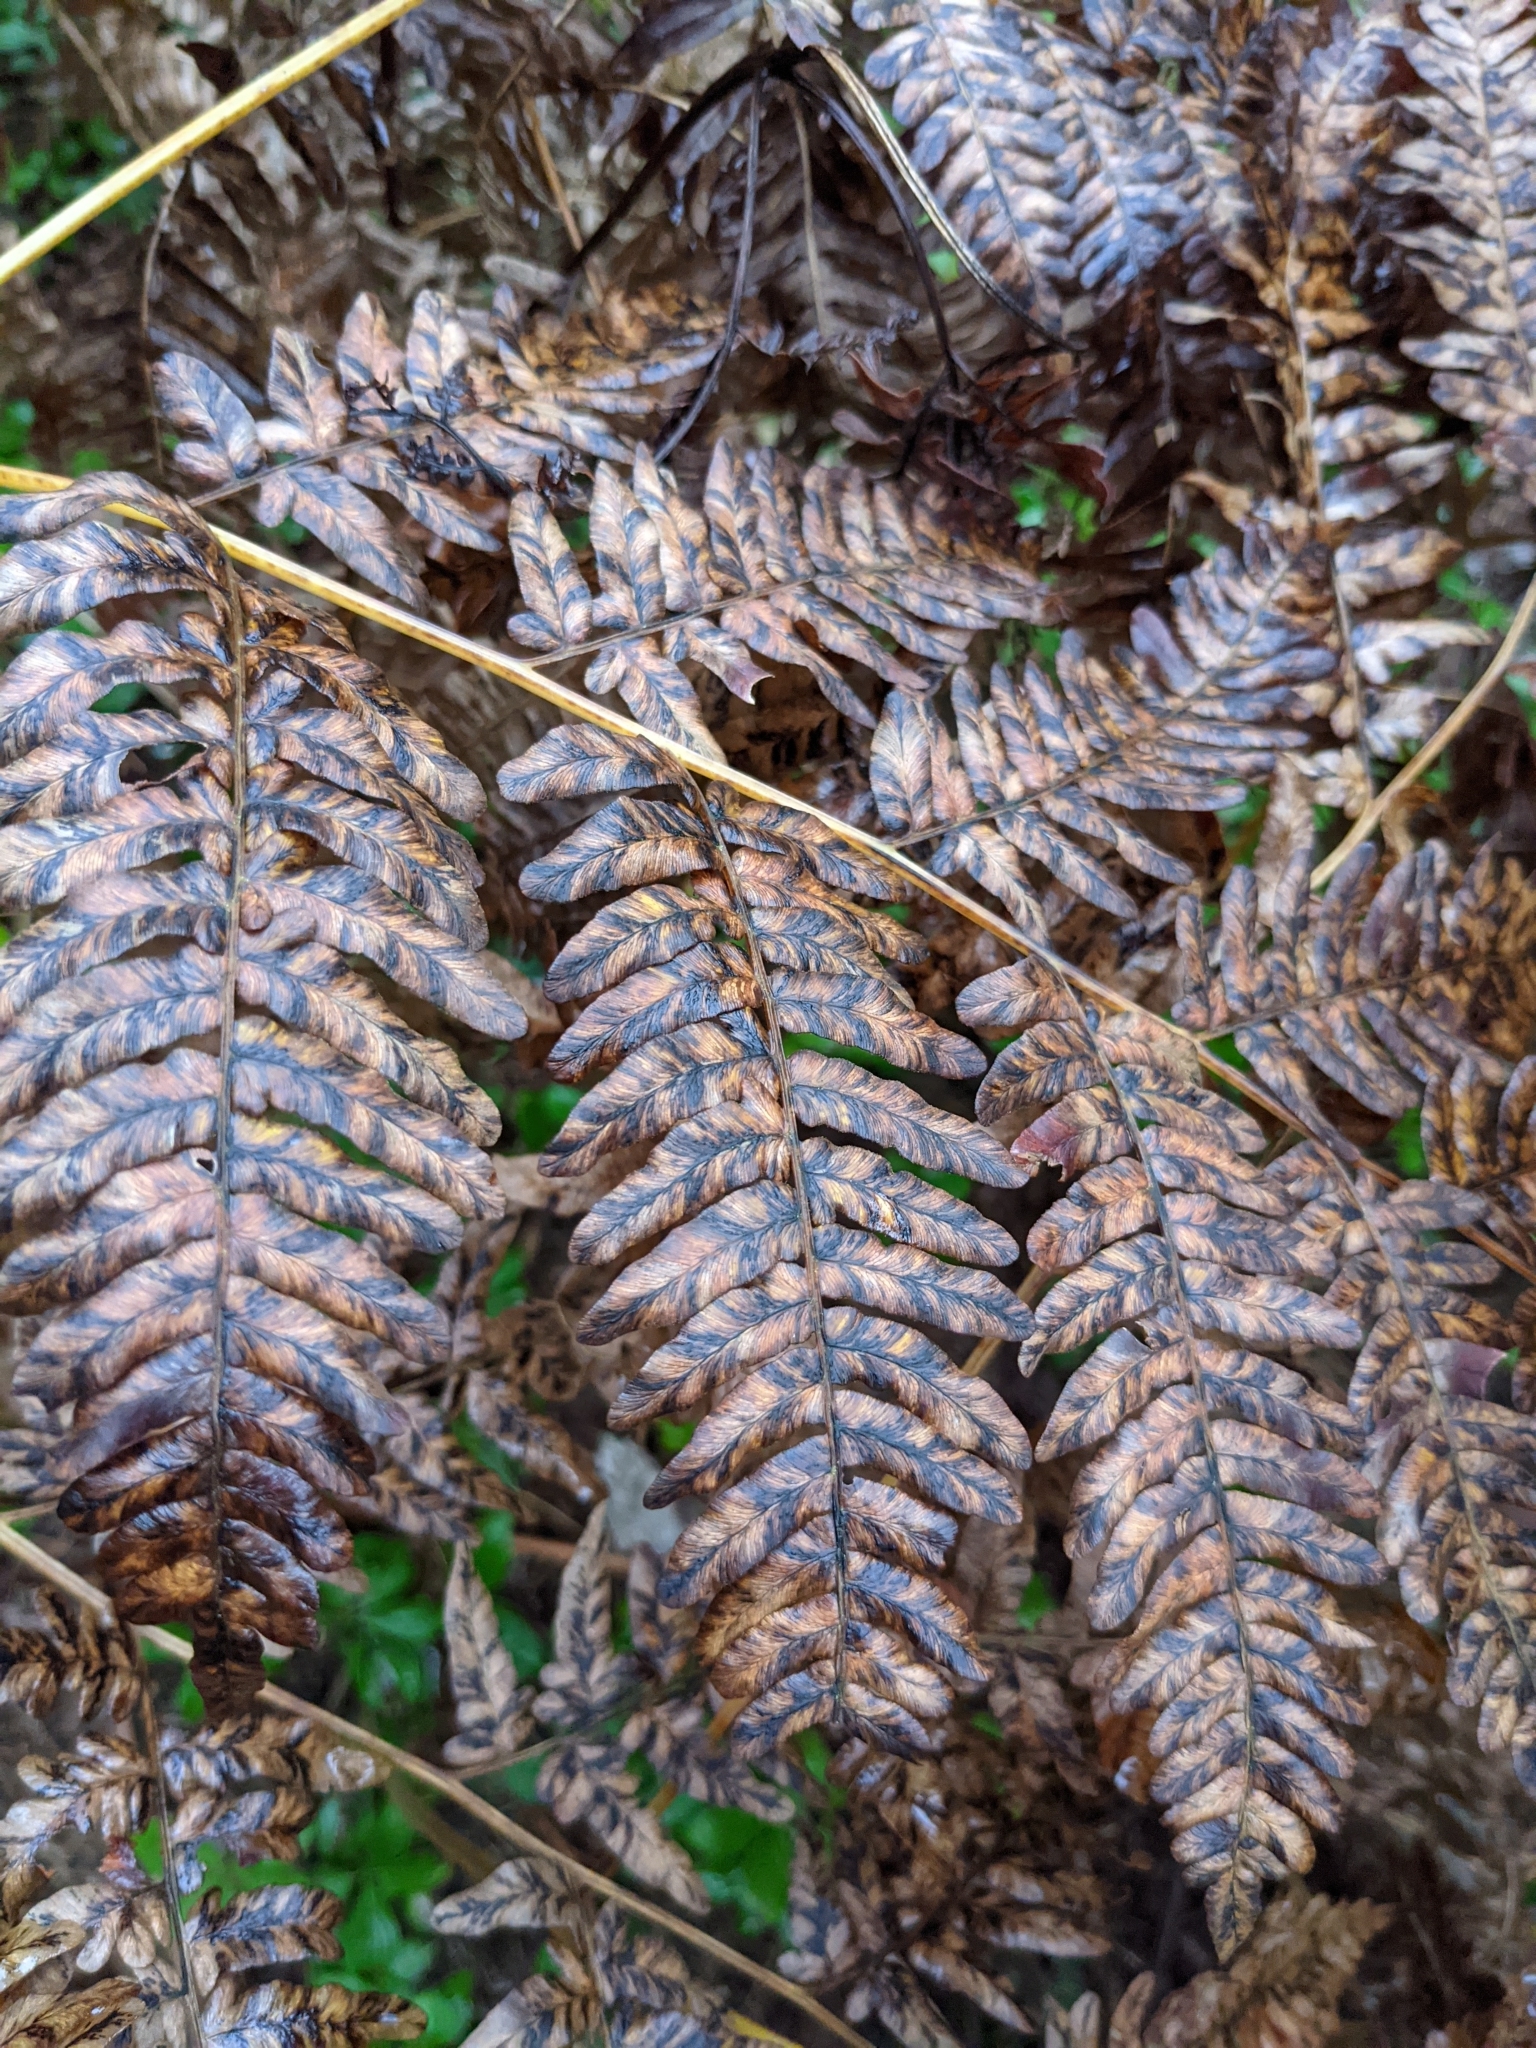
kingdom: Plantae
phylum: Tracheophyta
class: Polypodiopsida
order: Polypodiales
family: Dennstaedtiaceae
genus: Pteridium
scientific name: Pteridium aquilinum
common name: Bracken
